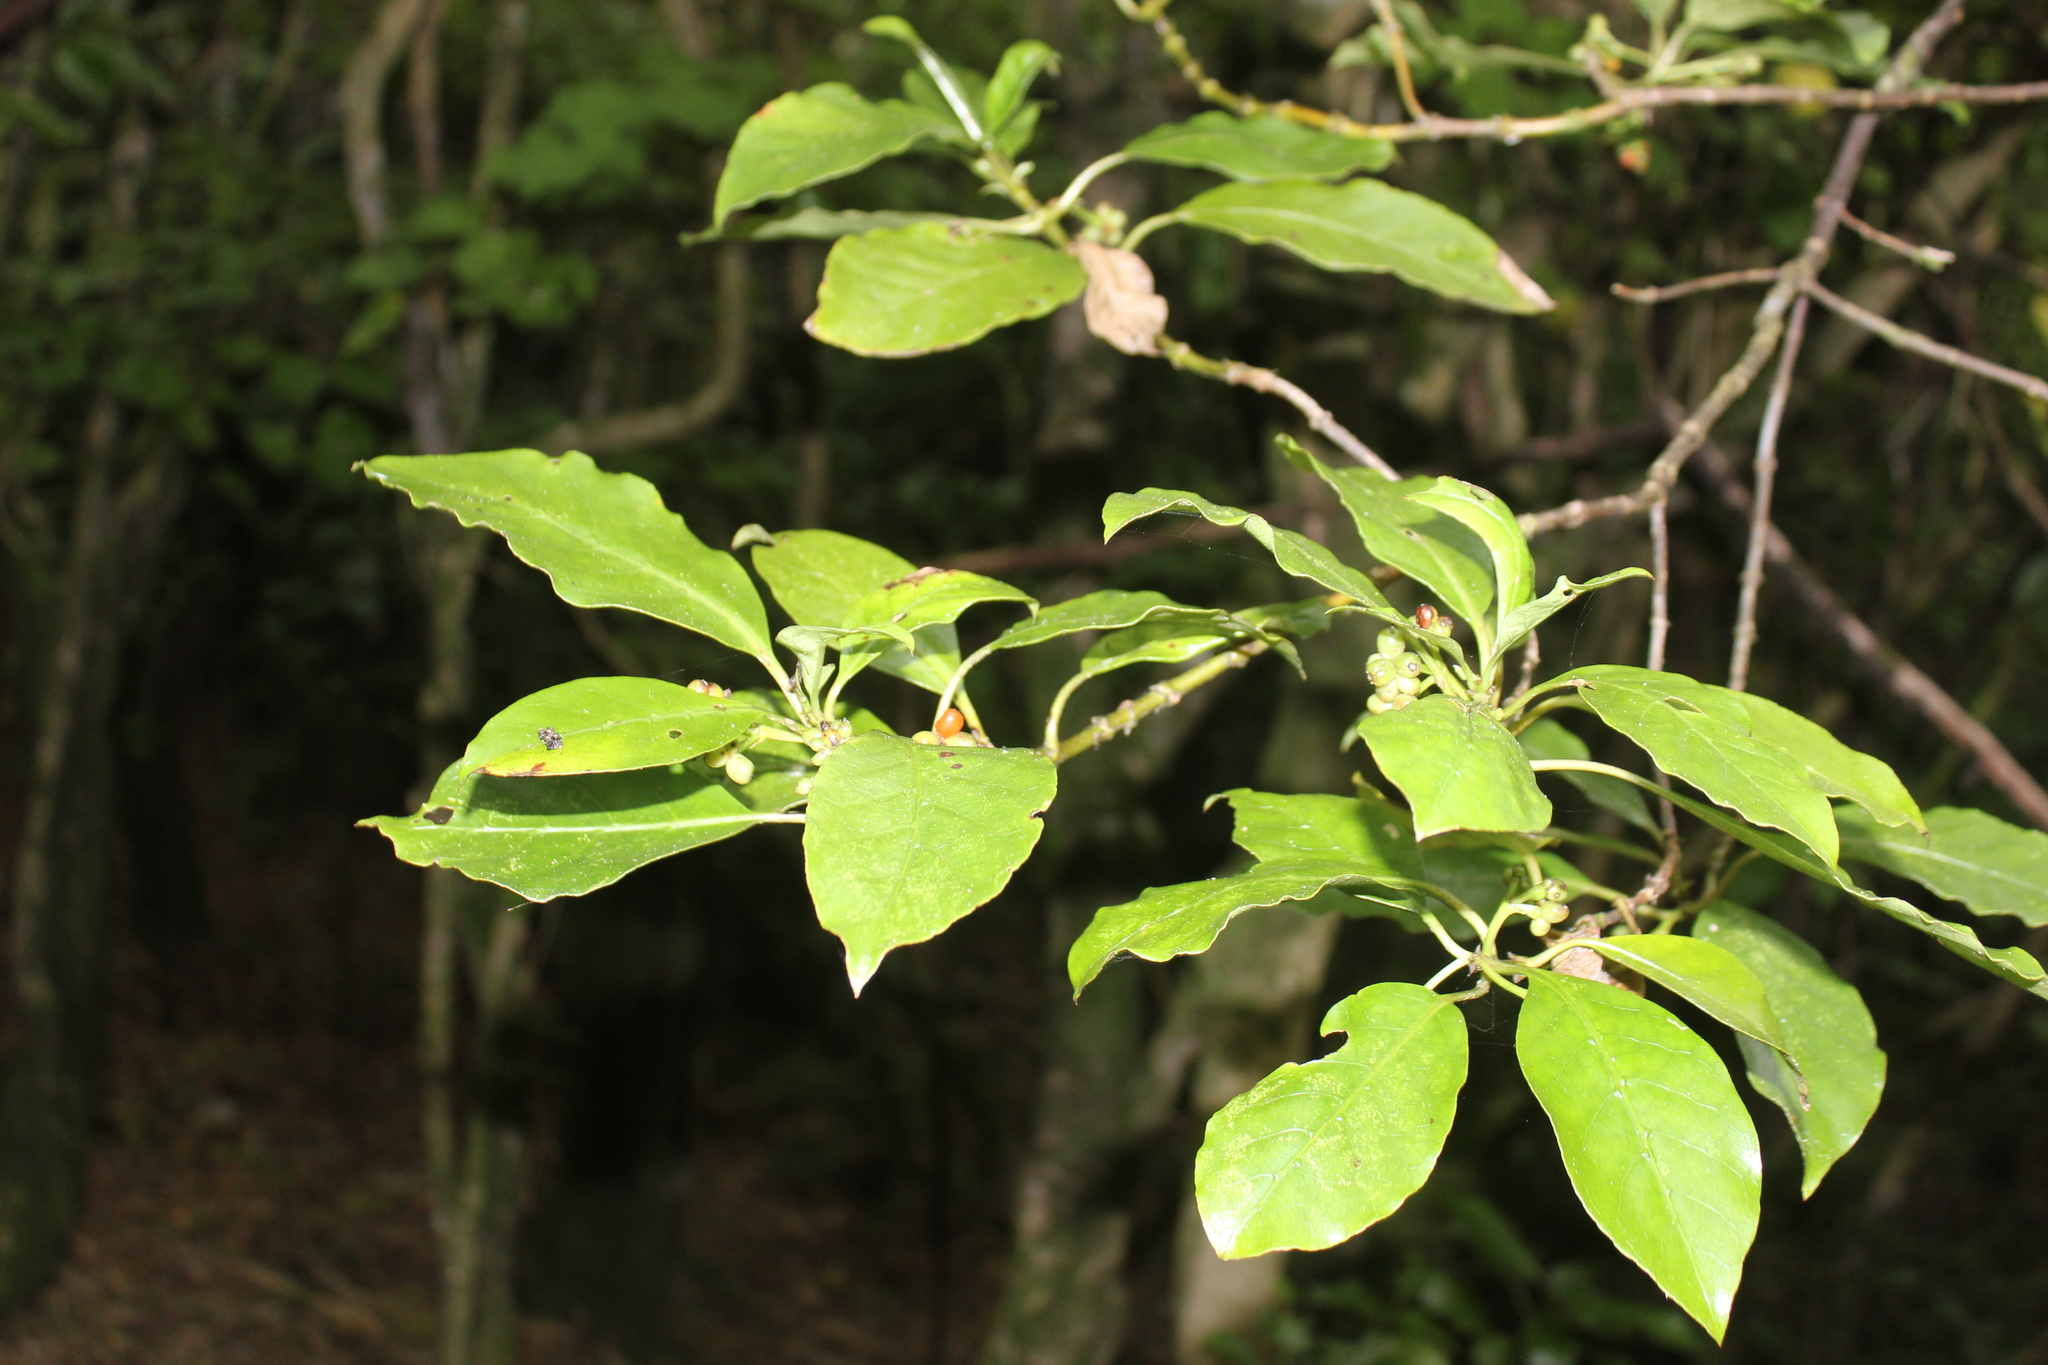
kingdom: Plantae
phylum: Tracheophyta
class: Magnoliopsida
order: Gentianales
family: Rubiaceae
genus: Coprosma
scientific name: Coprosma autumnalis
